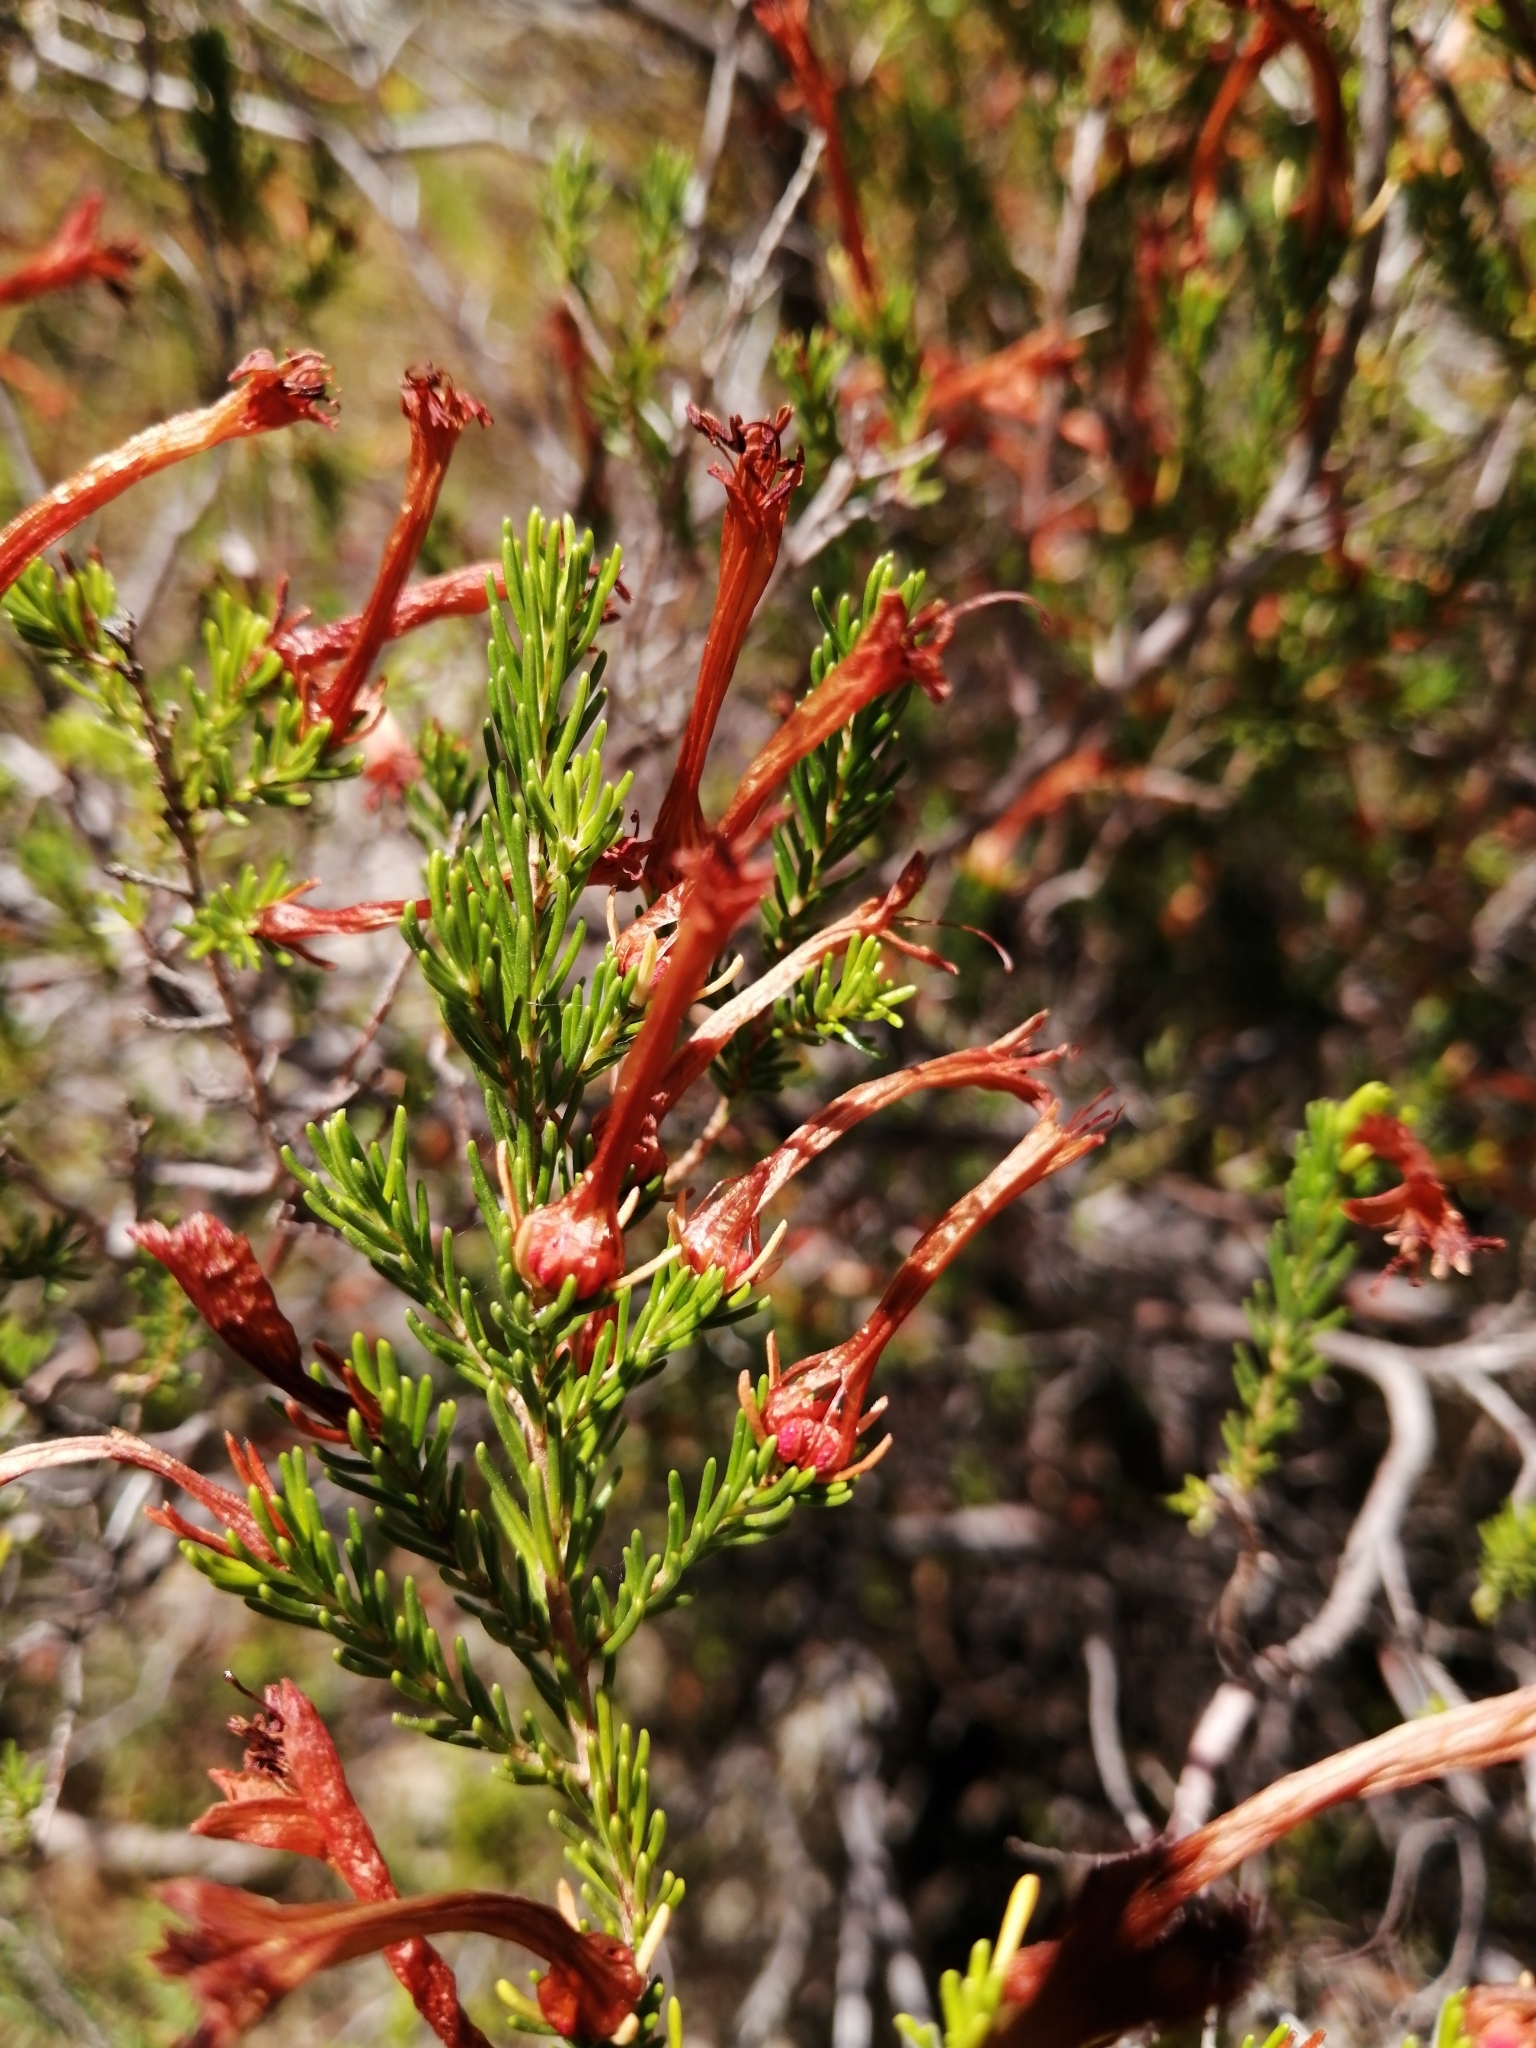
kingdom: Plantae
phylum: Tracheophyta
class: Magnoliopsida
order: Ericales
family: Ericaceae
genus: Erica
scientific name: Erica curviflora
